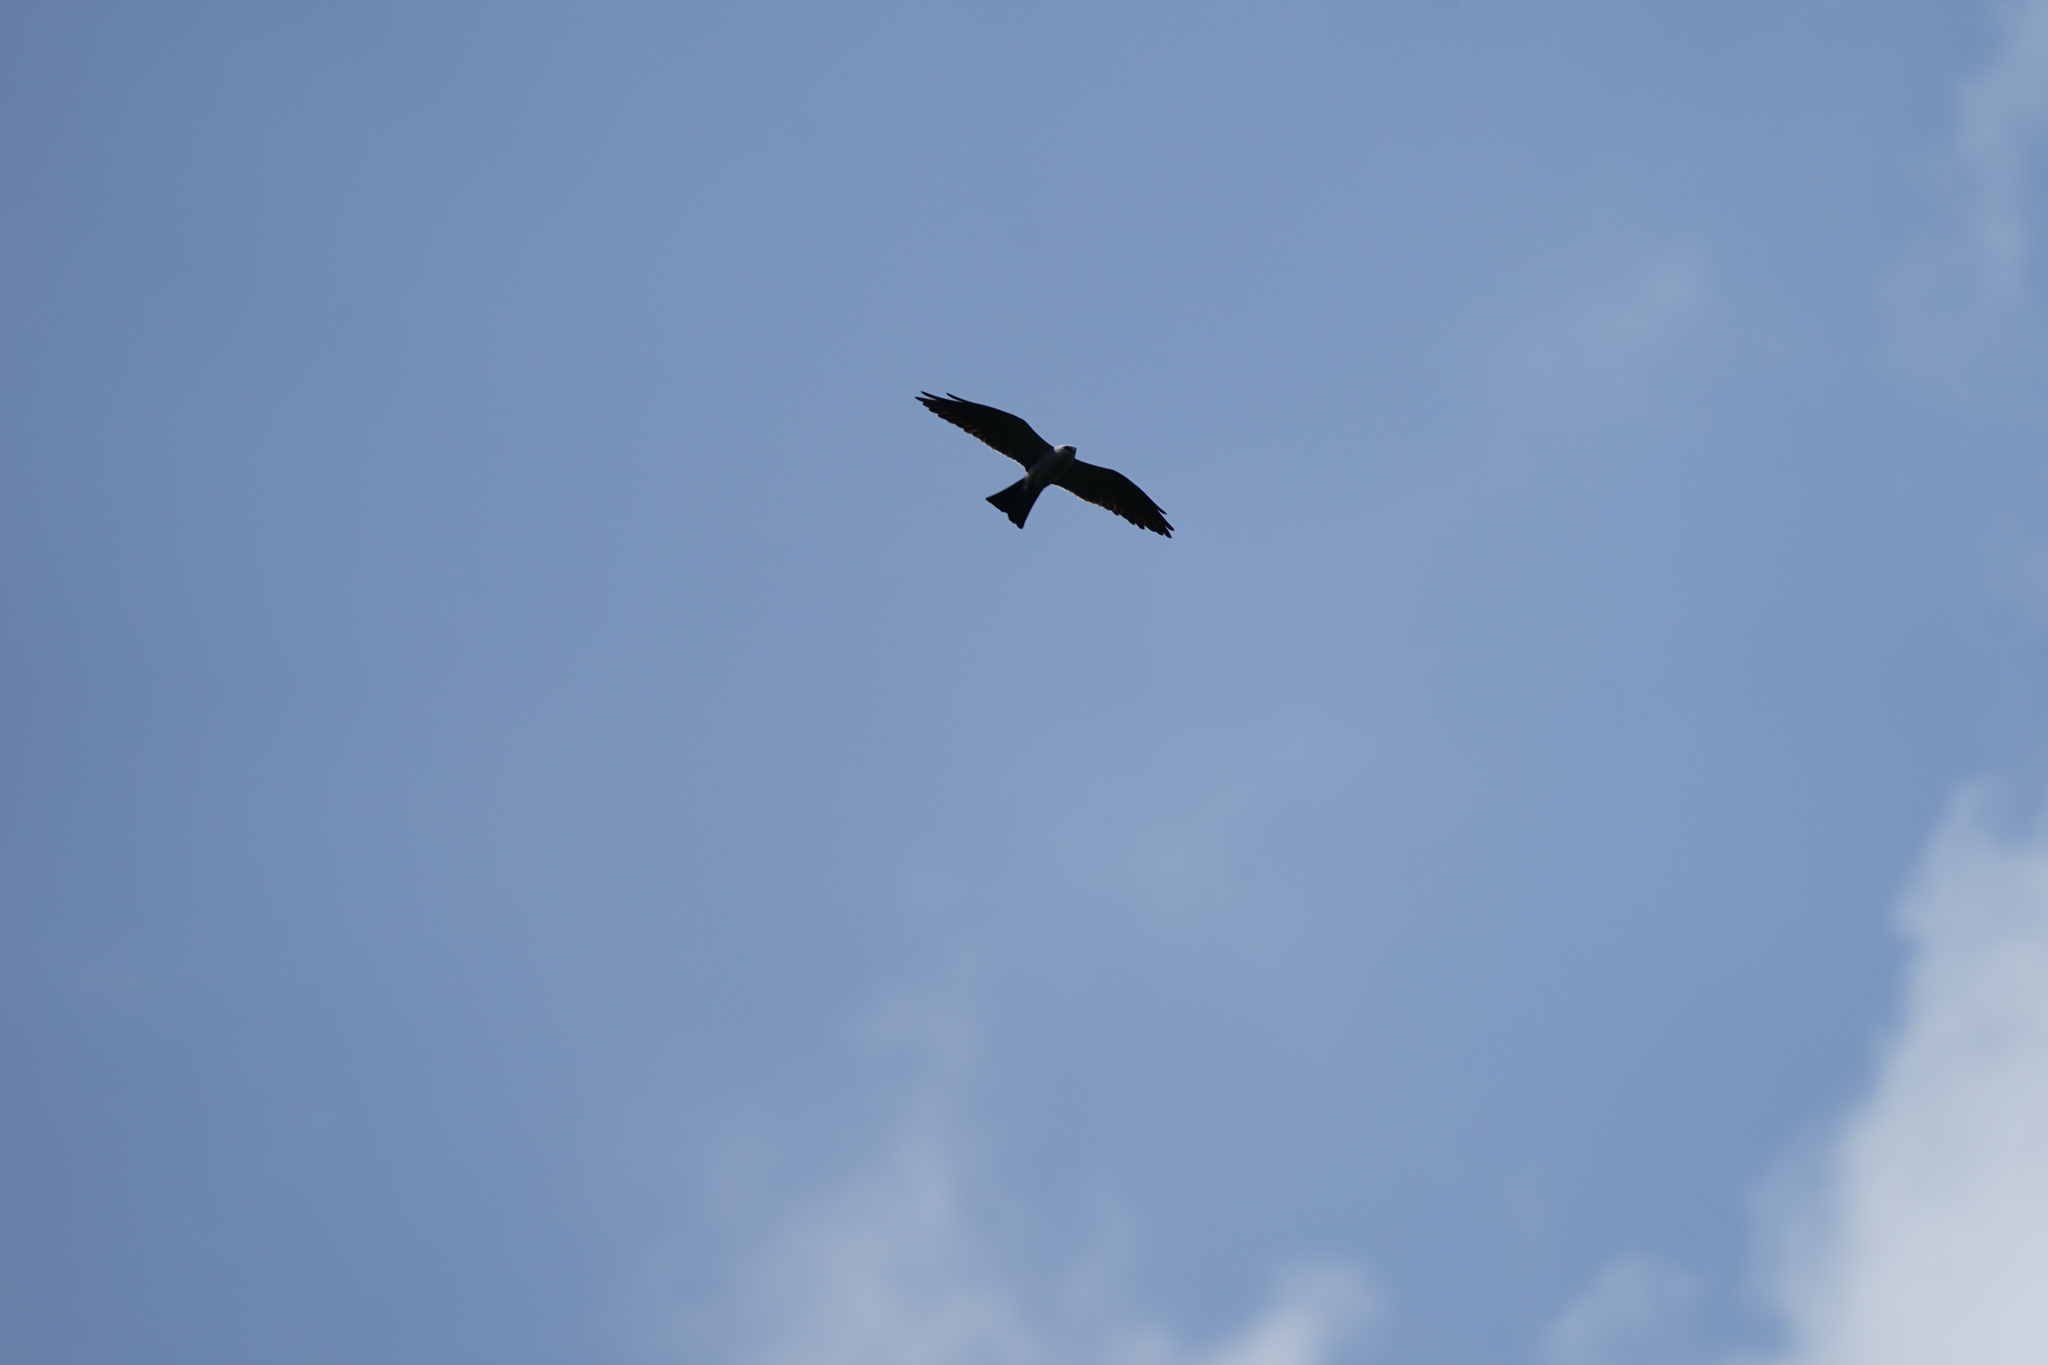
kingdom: Animalia
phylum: Chordata
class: Aves
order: Accipitriformes
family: Accipitridae
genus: Ictinia
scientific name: Ictinia mississippiensis
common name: Mississippi kite
